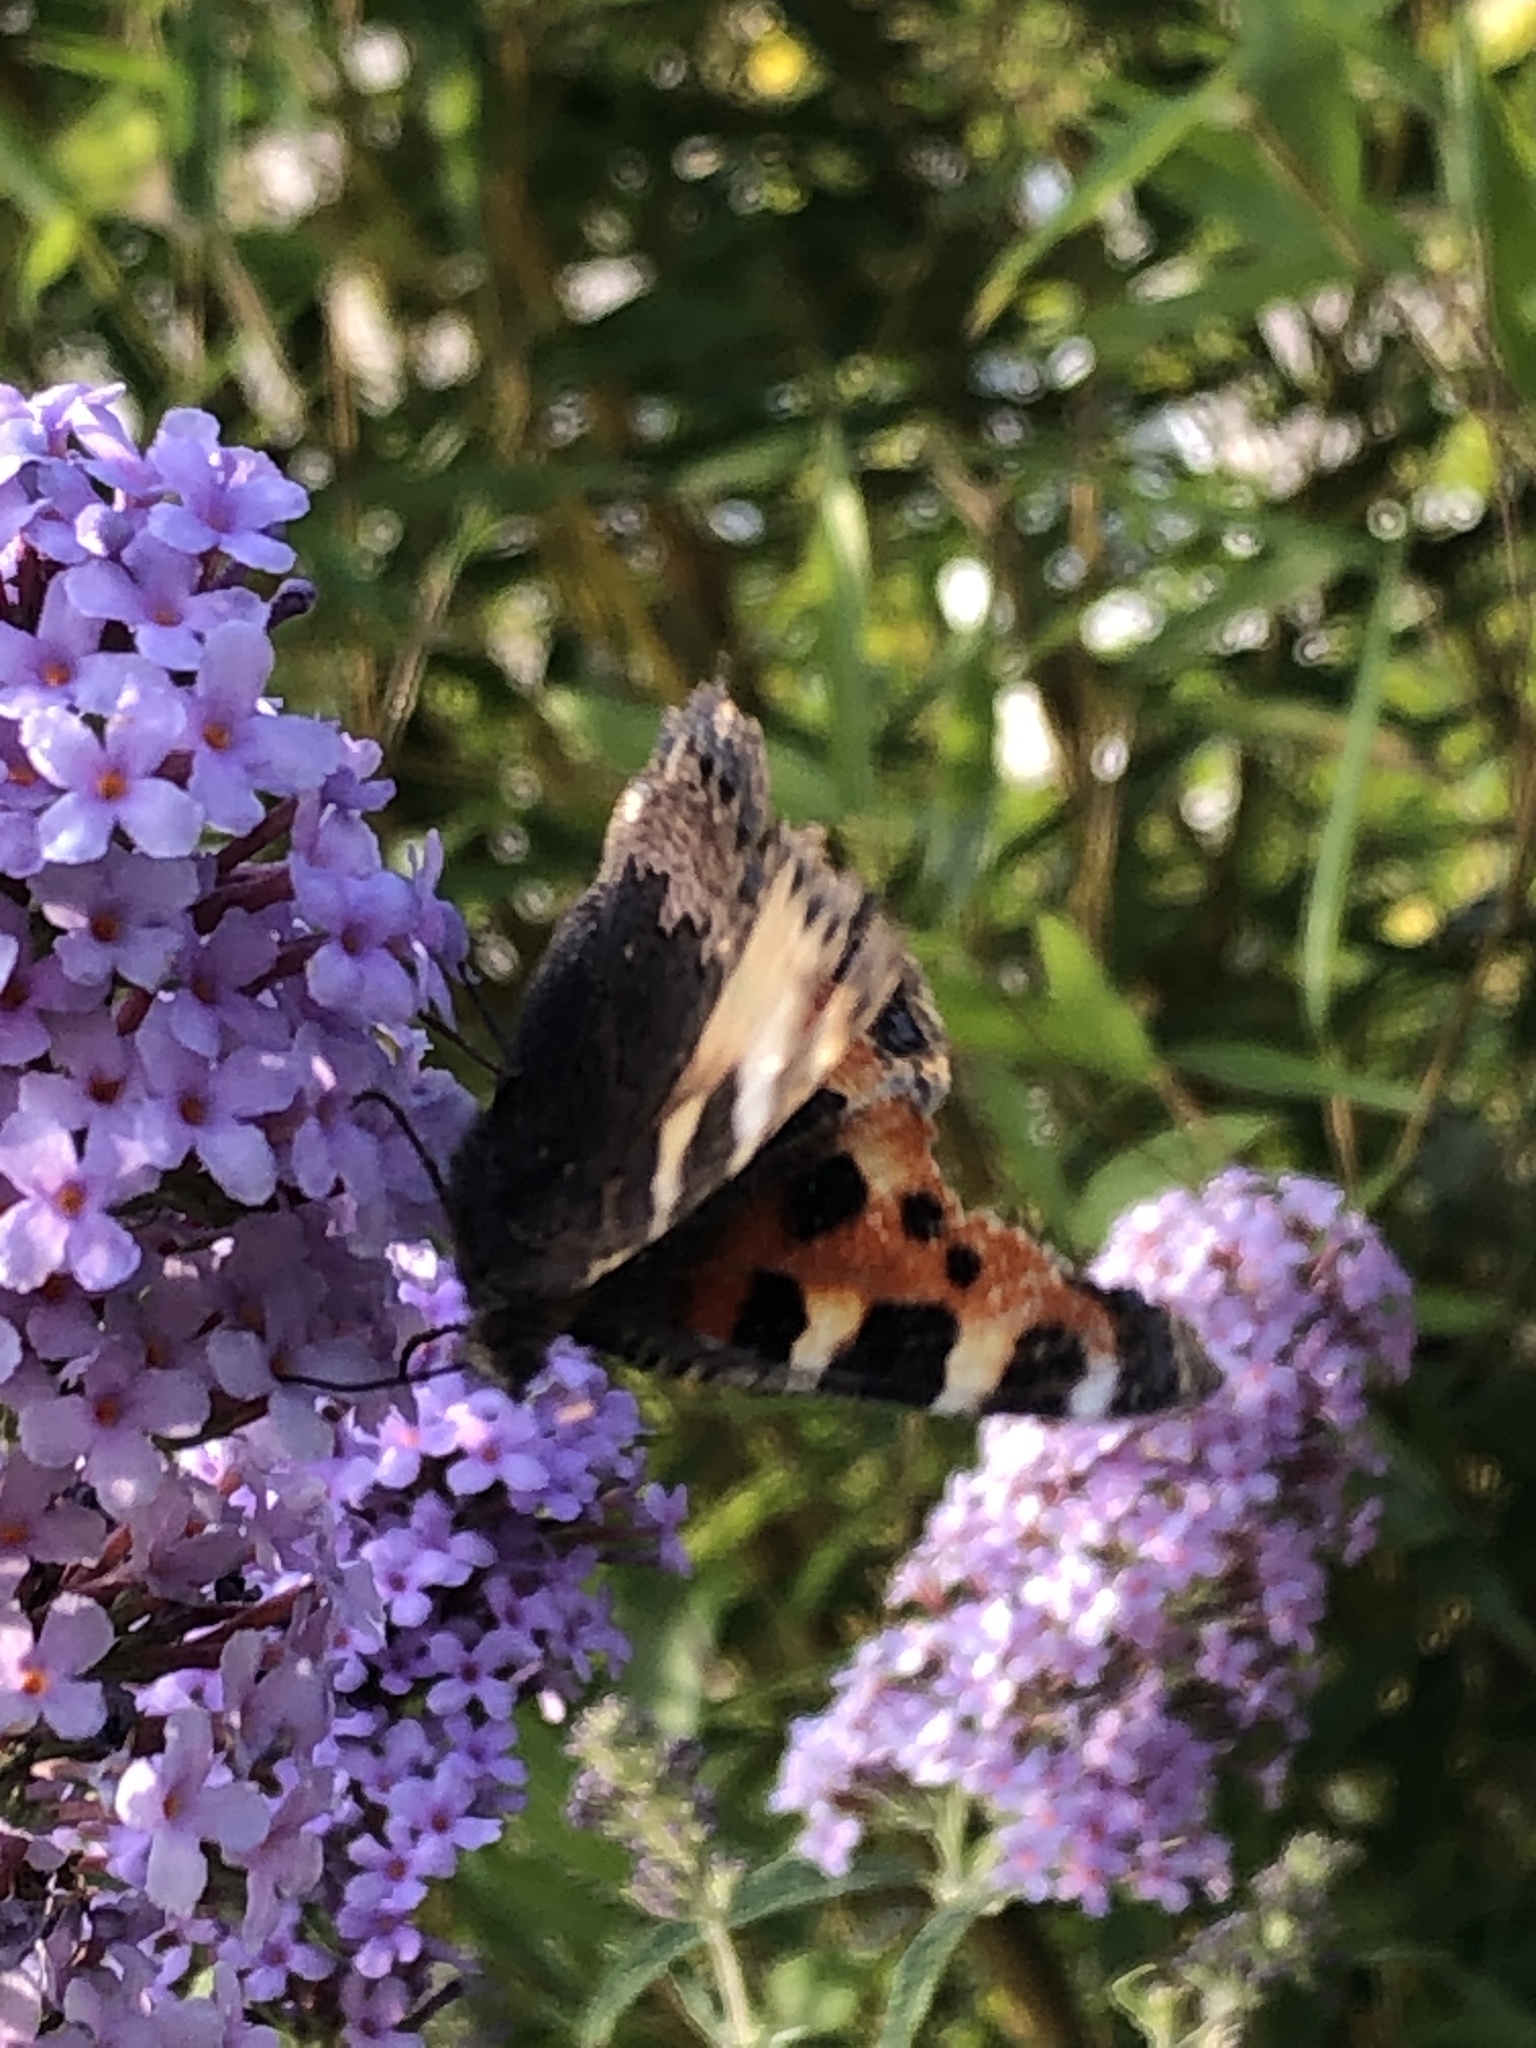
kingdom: Animalia
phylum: Arthropoda
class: Insecta
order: Lepidoptera
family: Nymphalidae
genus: Aglais
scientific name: Aglais urticae
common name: Small tortoiseshell
